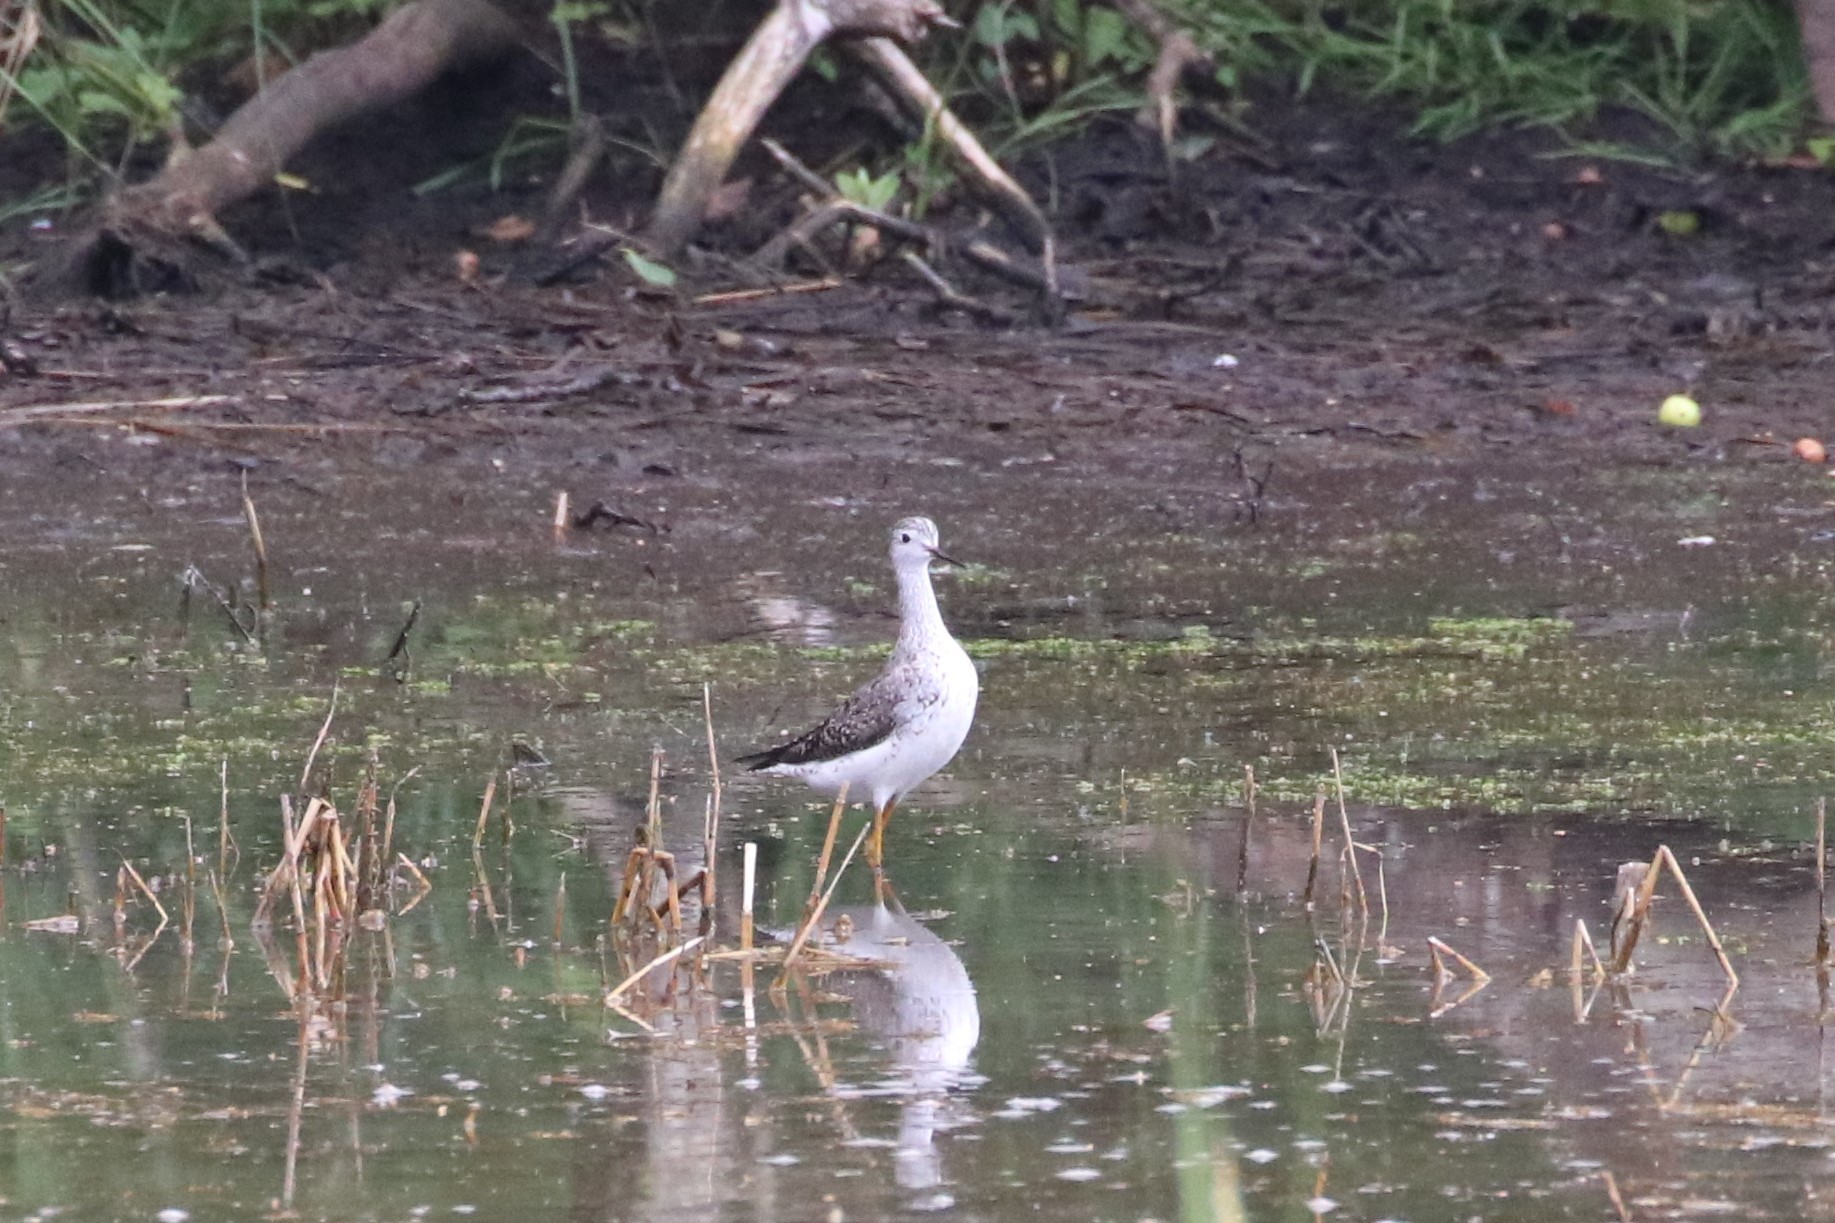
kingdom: Animalia
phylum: Chordata
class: Aves
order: Charadriiformes
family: Scolopacidae
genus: Tringa
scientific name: Tringa flavipes
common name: Lesser yellowlegs
